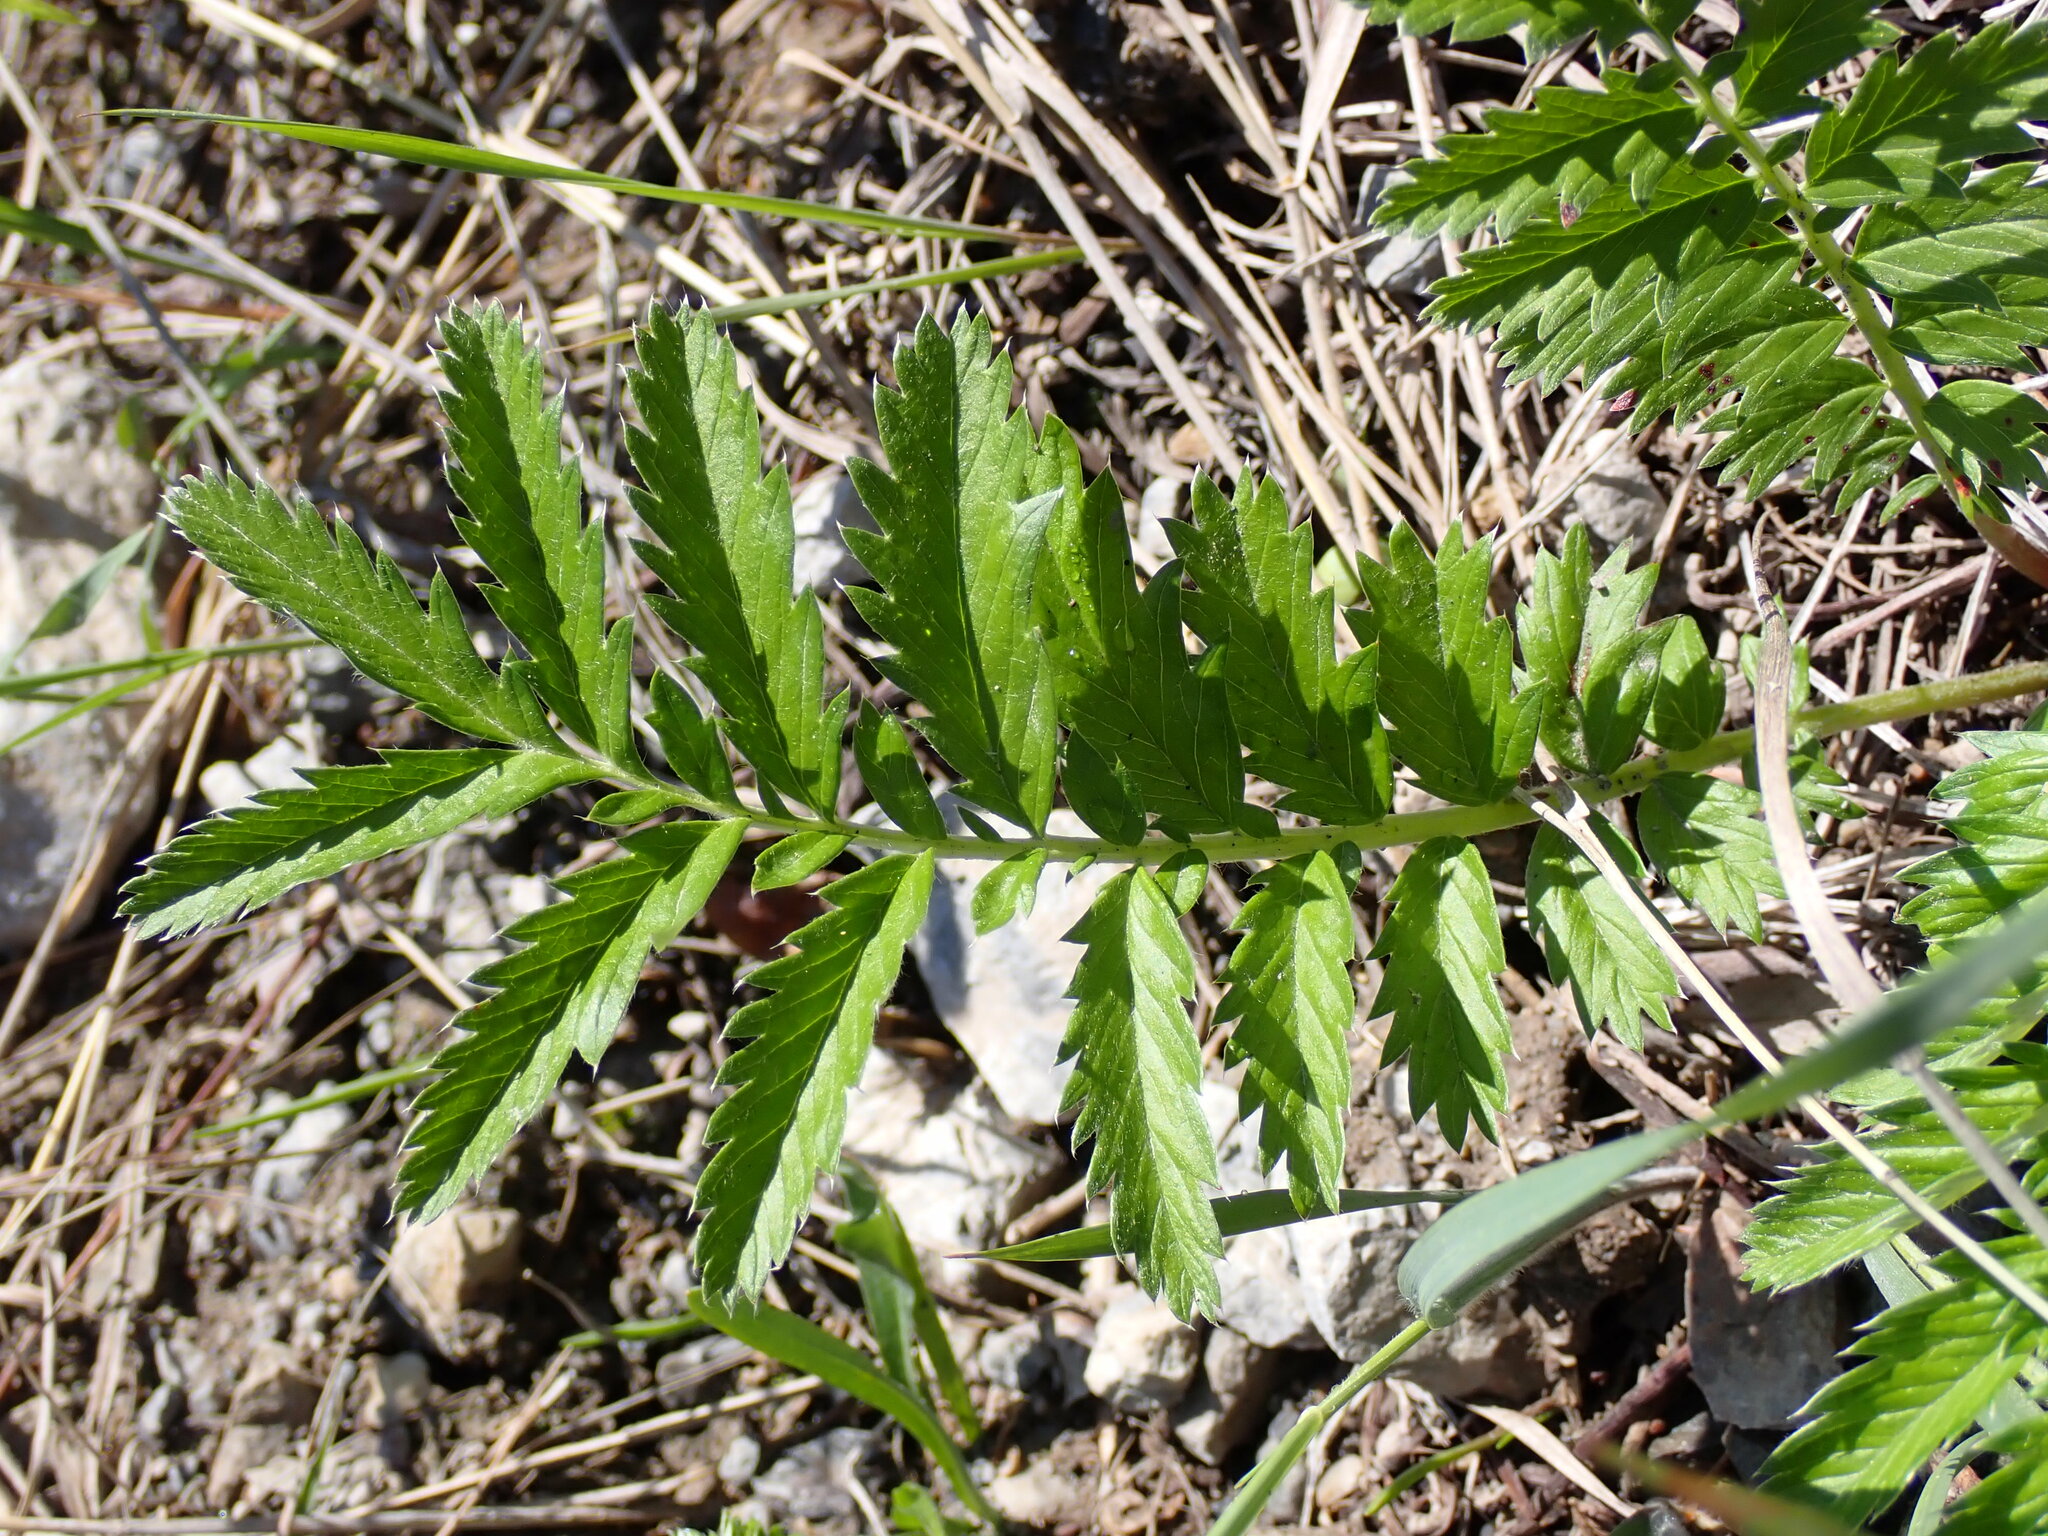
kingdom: Plantae
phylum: Tracheophyta
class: Magnoliopsida
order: Rosales
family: Rosaceae
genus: Argentina
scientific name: Argentina anserina
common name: Common silverweed
